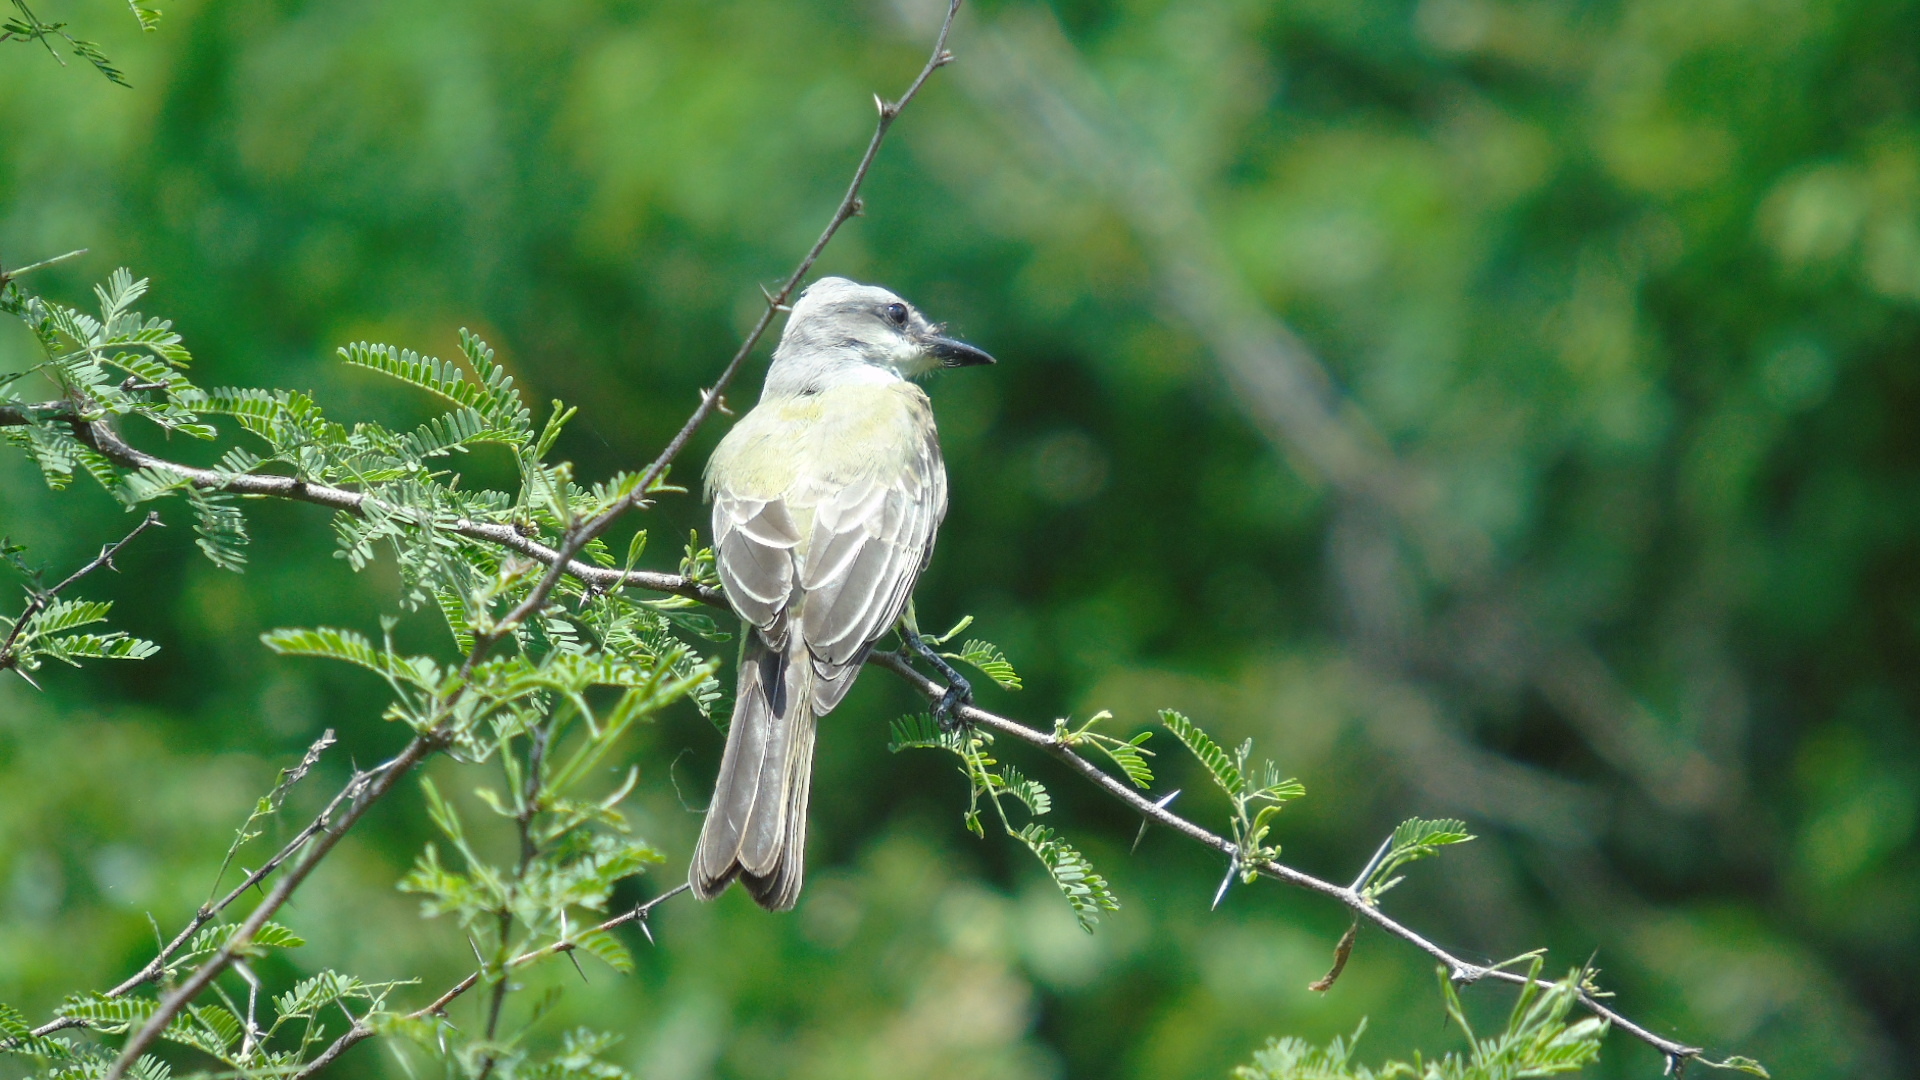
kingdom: Animalia
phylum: Chordata
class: Aves
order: Passeriformes
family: Tyrannidae
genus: Tyrannus
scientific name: Tyrannus melancholicus
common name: Tropical kingbird
